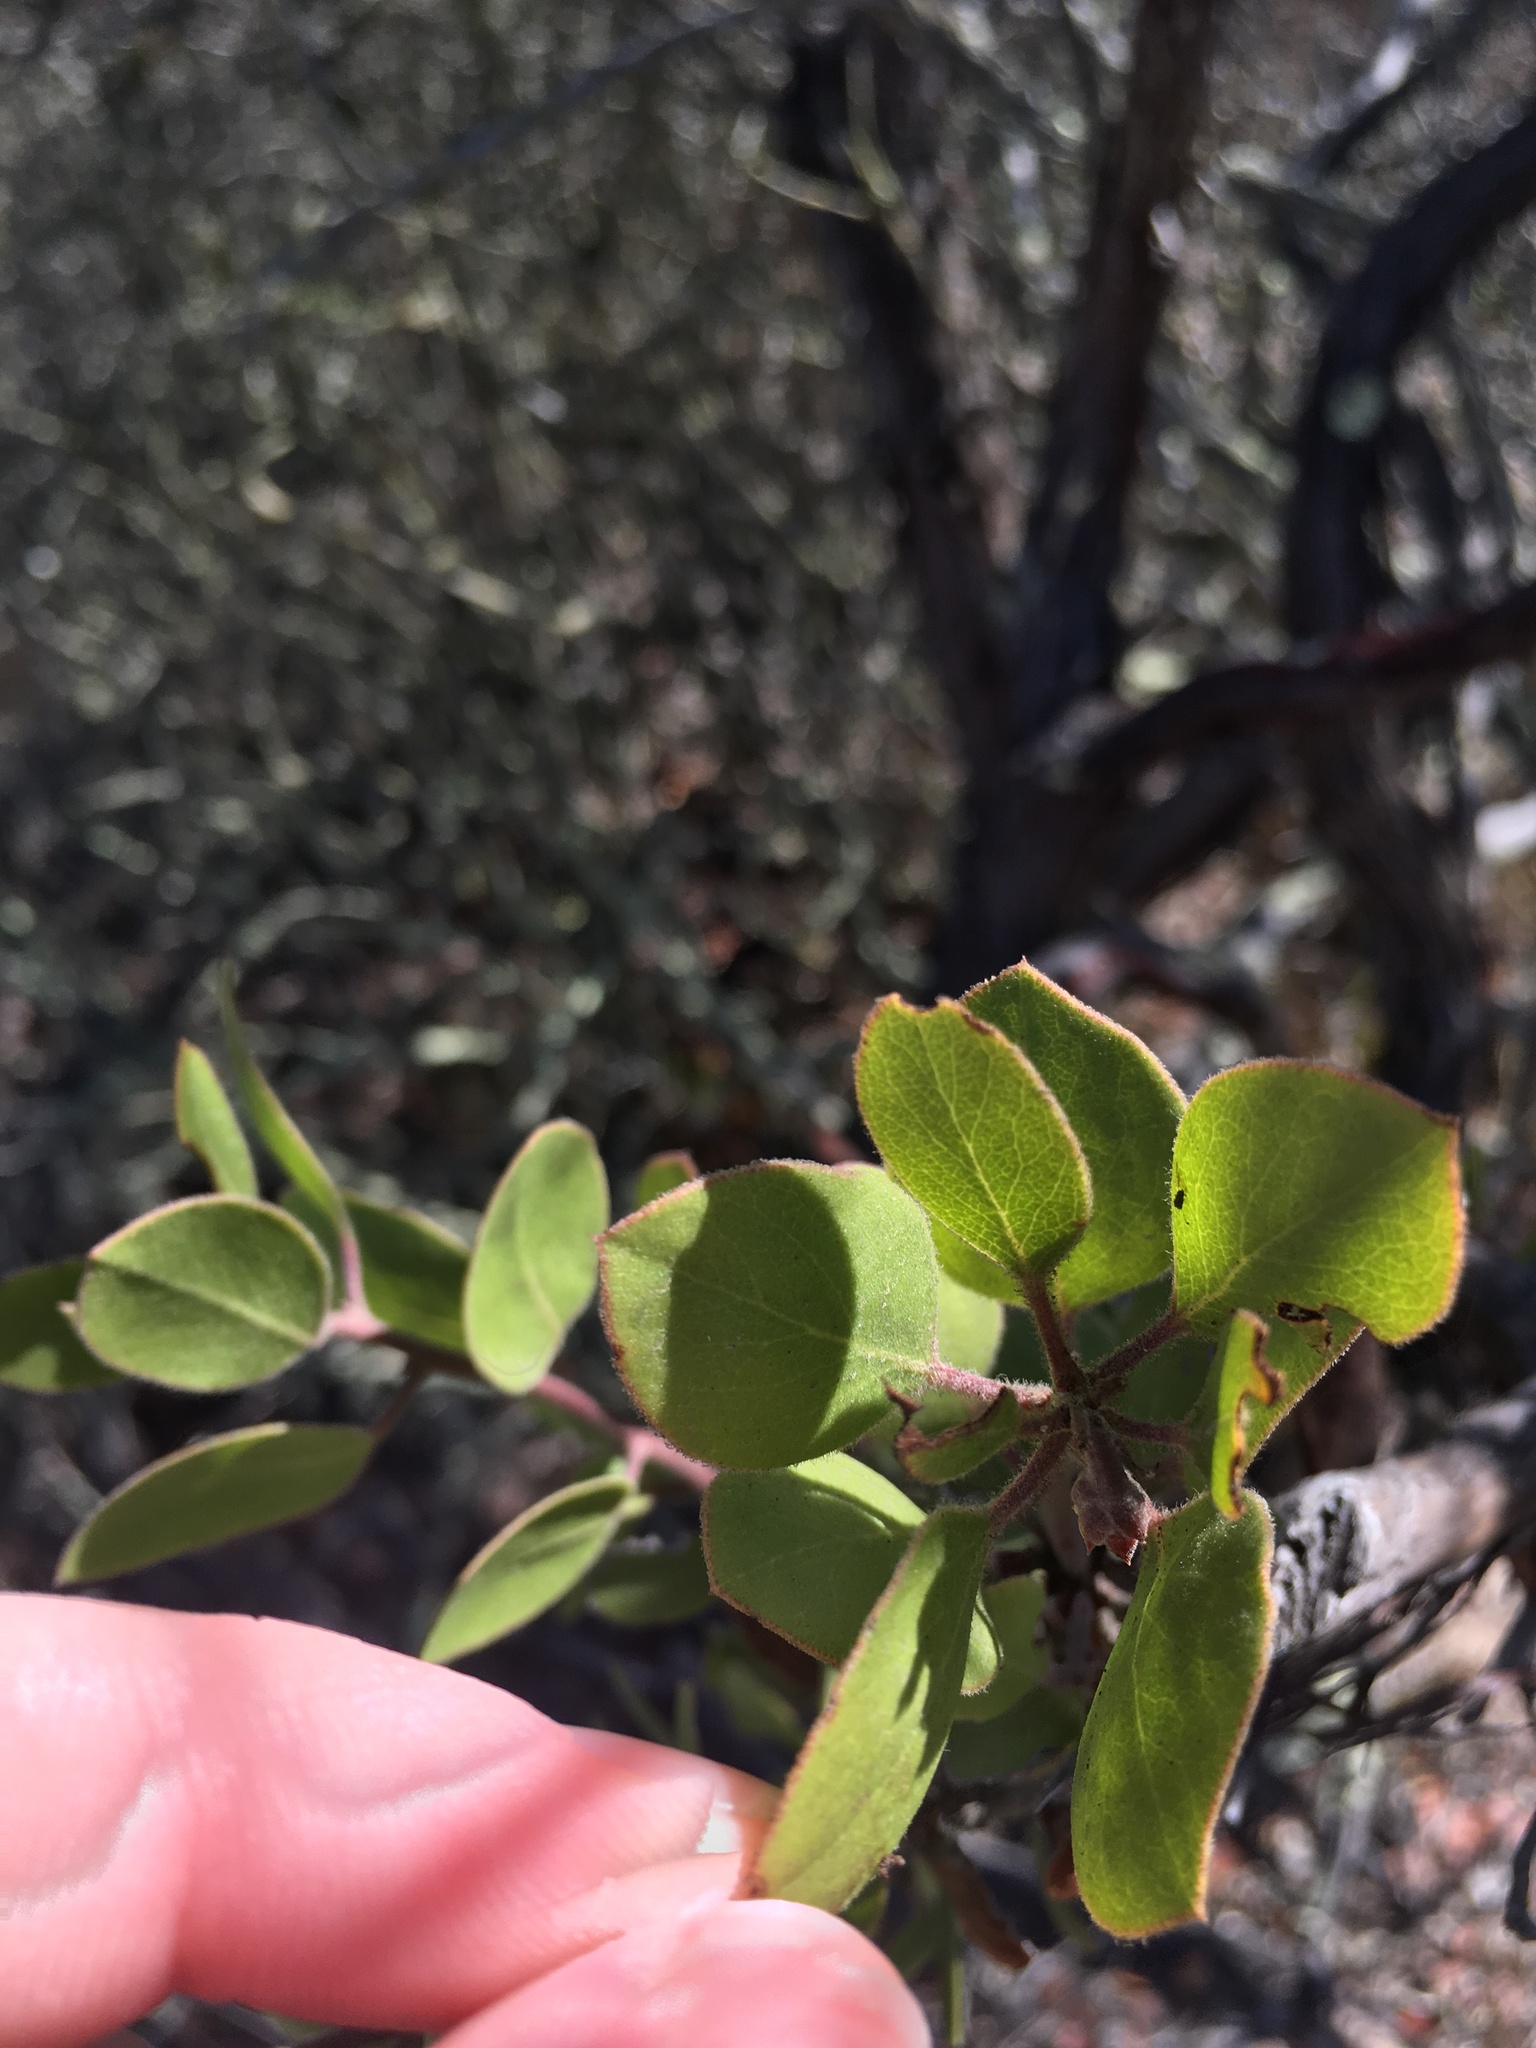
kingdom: Plantae
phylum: Tracheophyta
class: Magnoliopsida
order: Ericales
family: Ericaceae
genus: Arctostaphylos
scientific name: Arctostaphylos rudis
